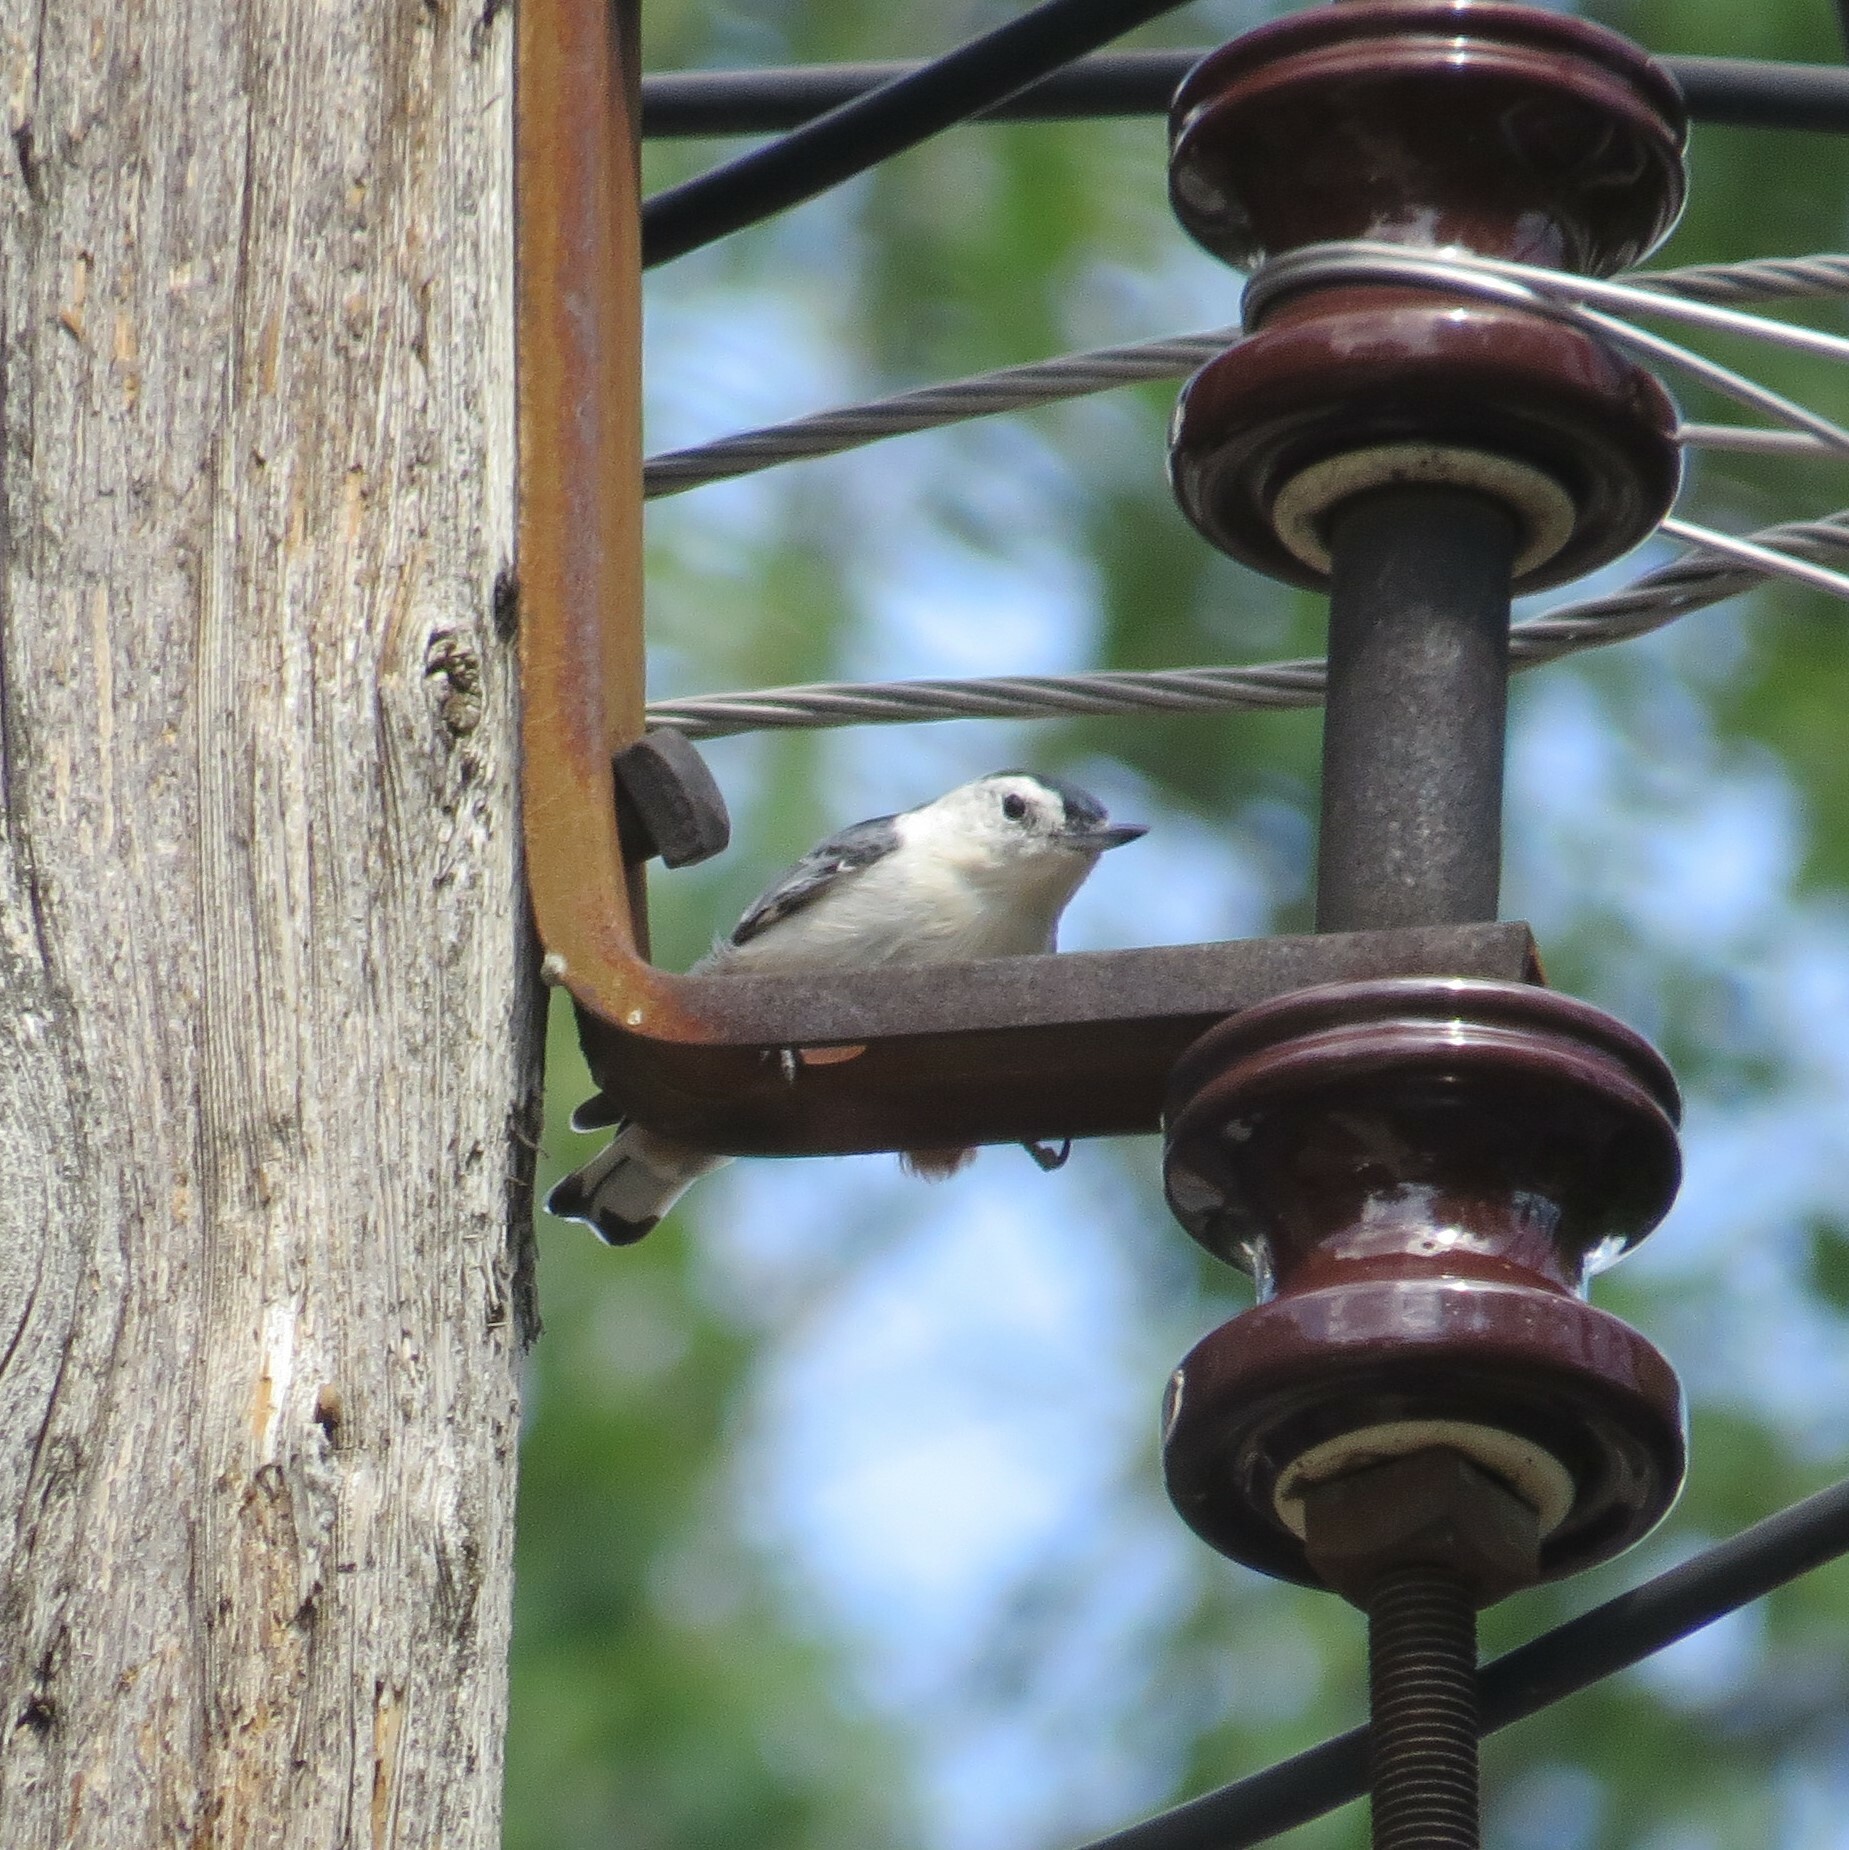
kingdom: Animalia
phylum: Chordata
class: Aves
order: Passeriformes
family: Sittidae
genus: Sitta
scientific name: Sitta carolinensis
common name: White-breasted nuthatch
